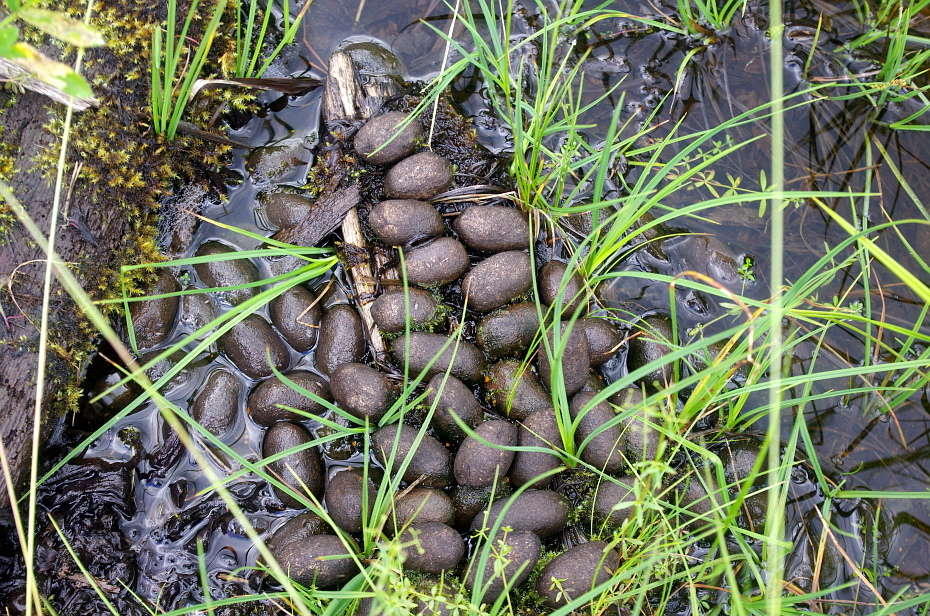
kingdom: Animalia
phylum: Chordata
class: Mammalia
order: Artiodactyla
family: Cervidae
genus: Alces
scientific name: Alces alces
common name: Moose
